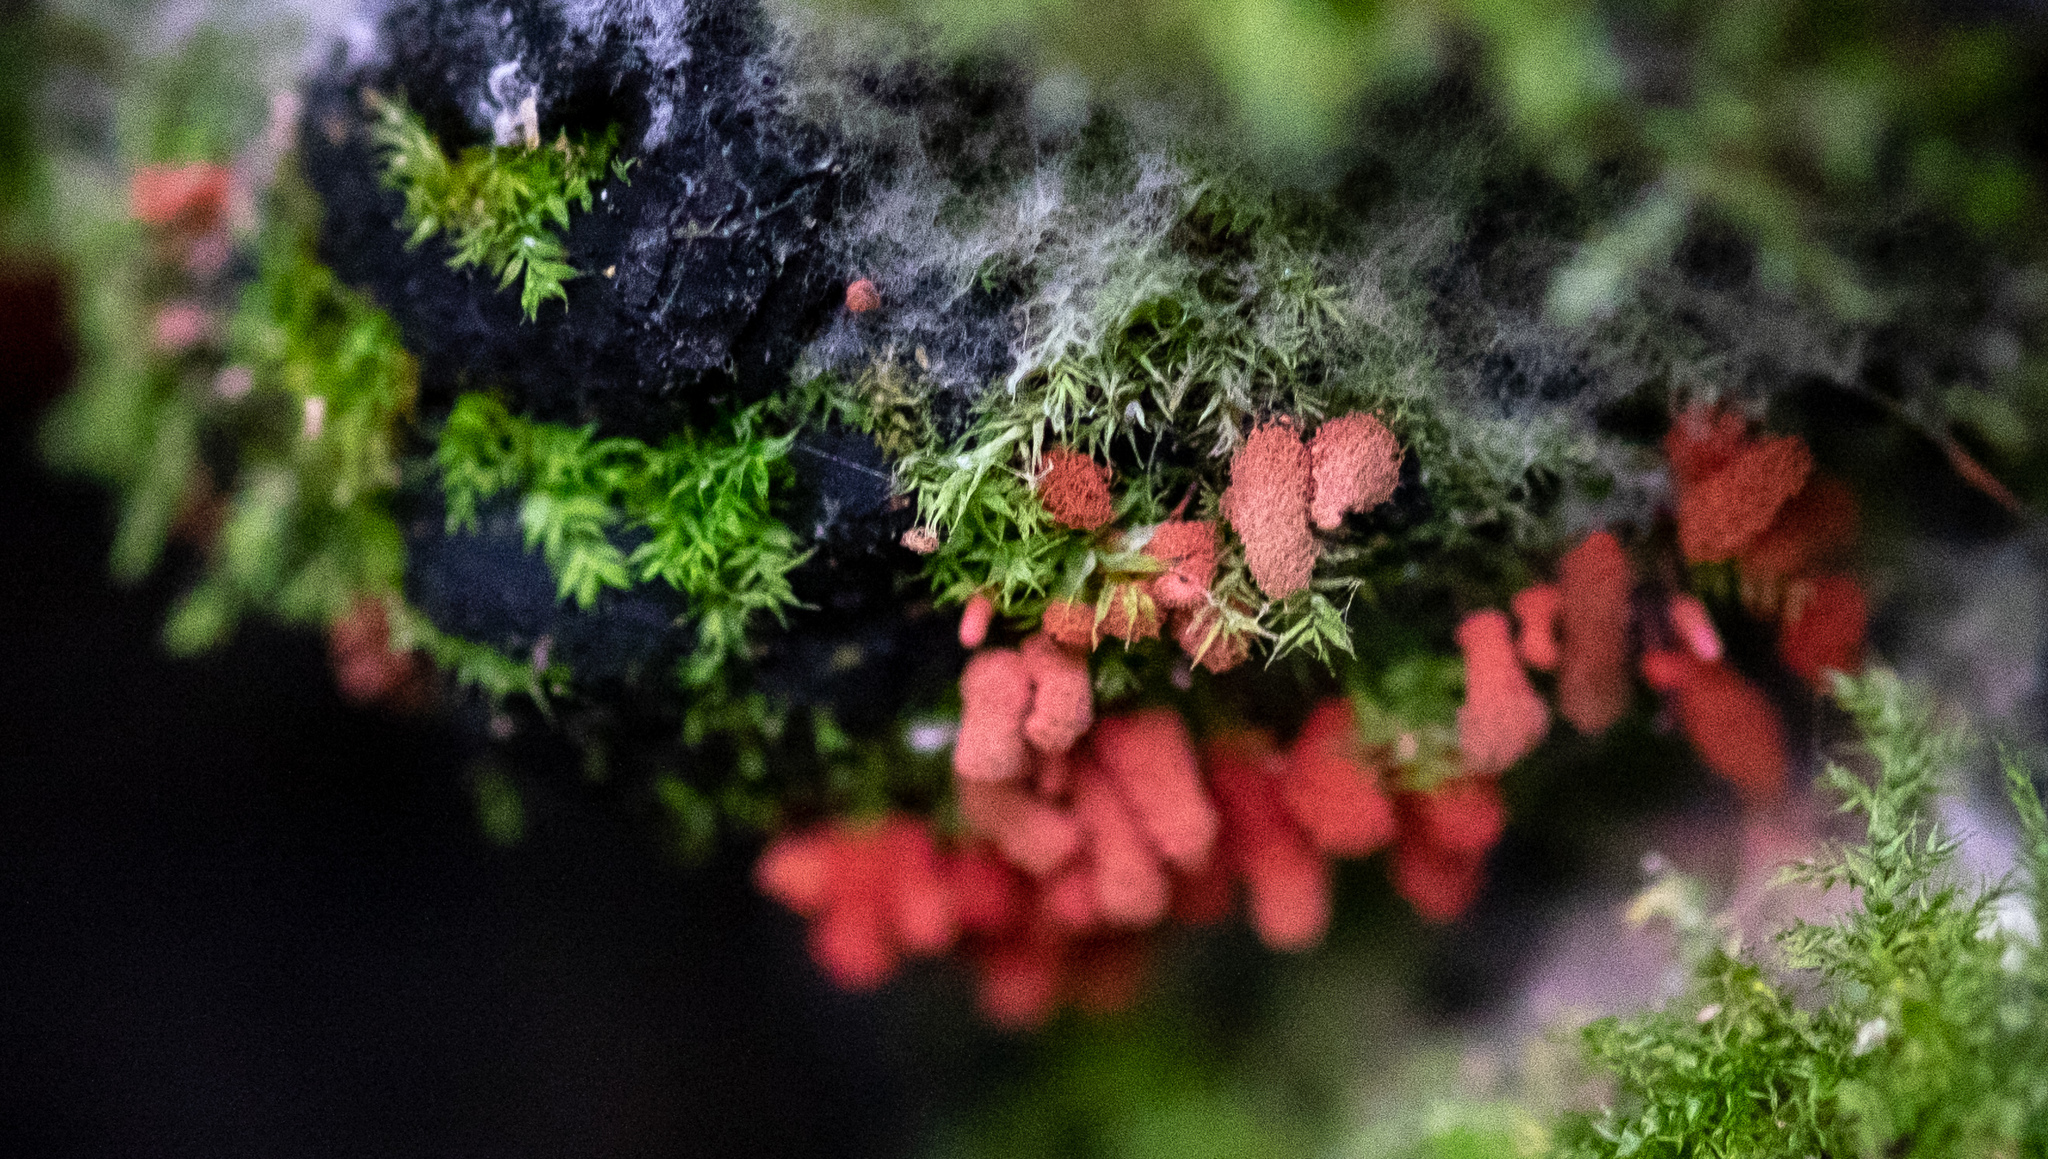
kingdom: Protozoa
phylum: Mycetozoa
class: Myxomycetes
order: Trichiales
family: Arcyriaceae
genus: Arcyria
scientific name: Arcyria denudata
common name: Carnival candy slime mold
